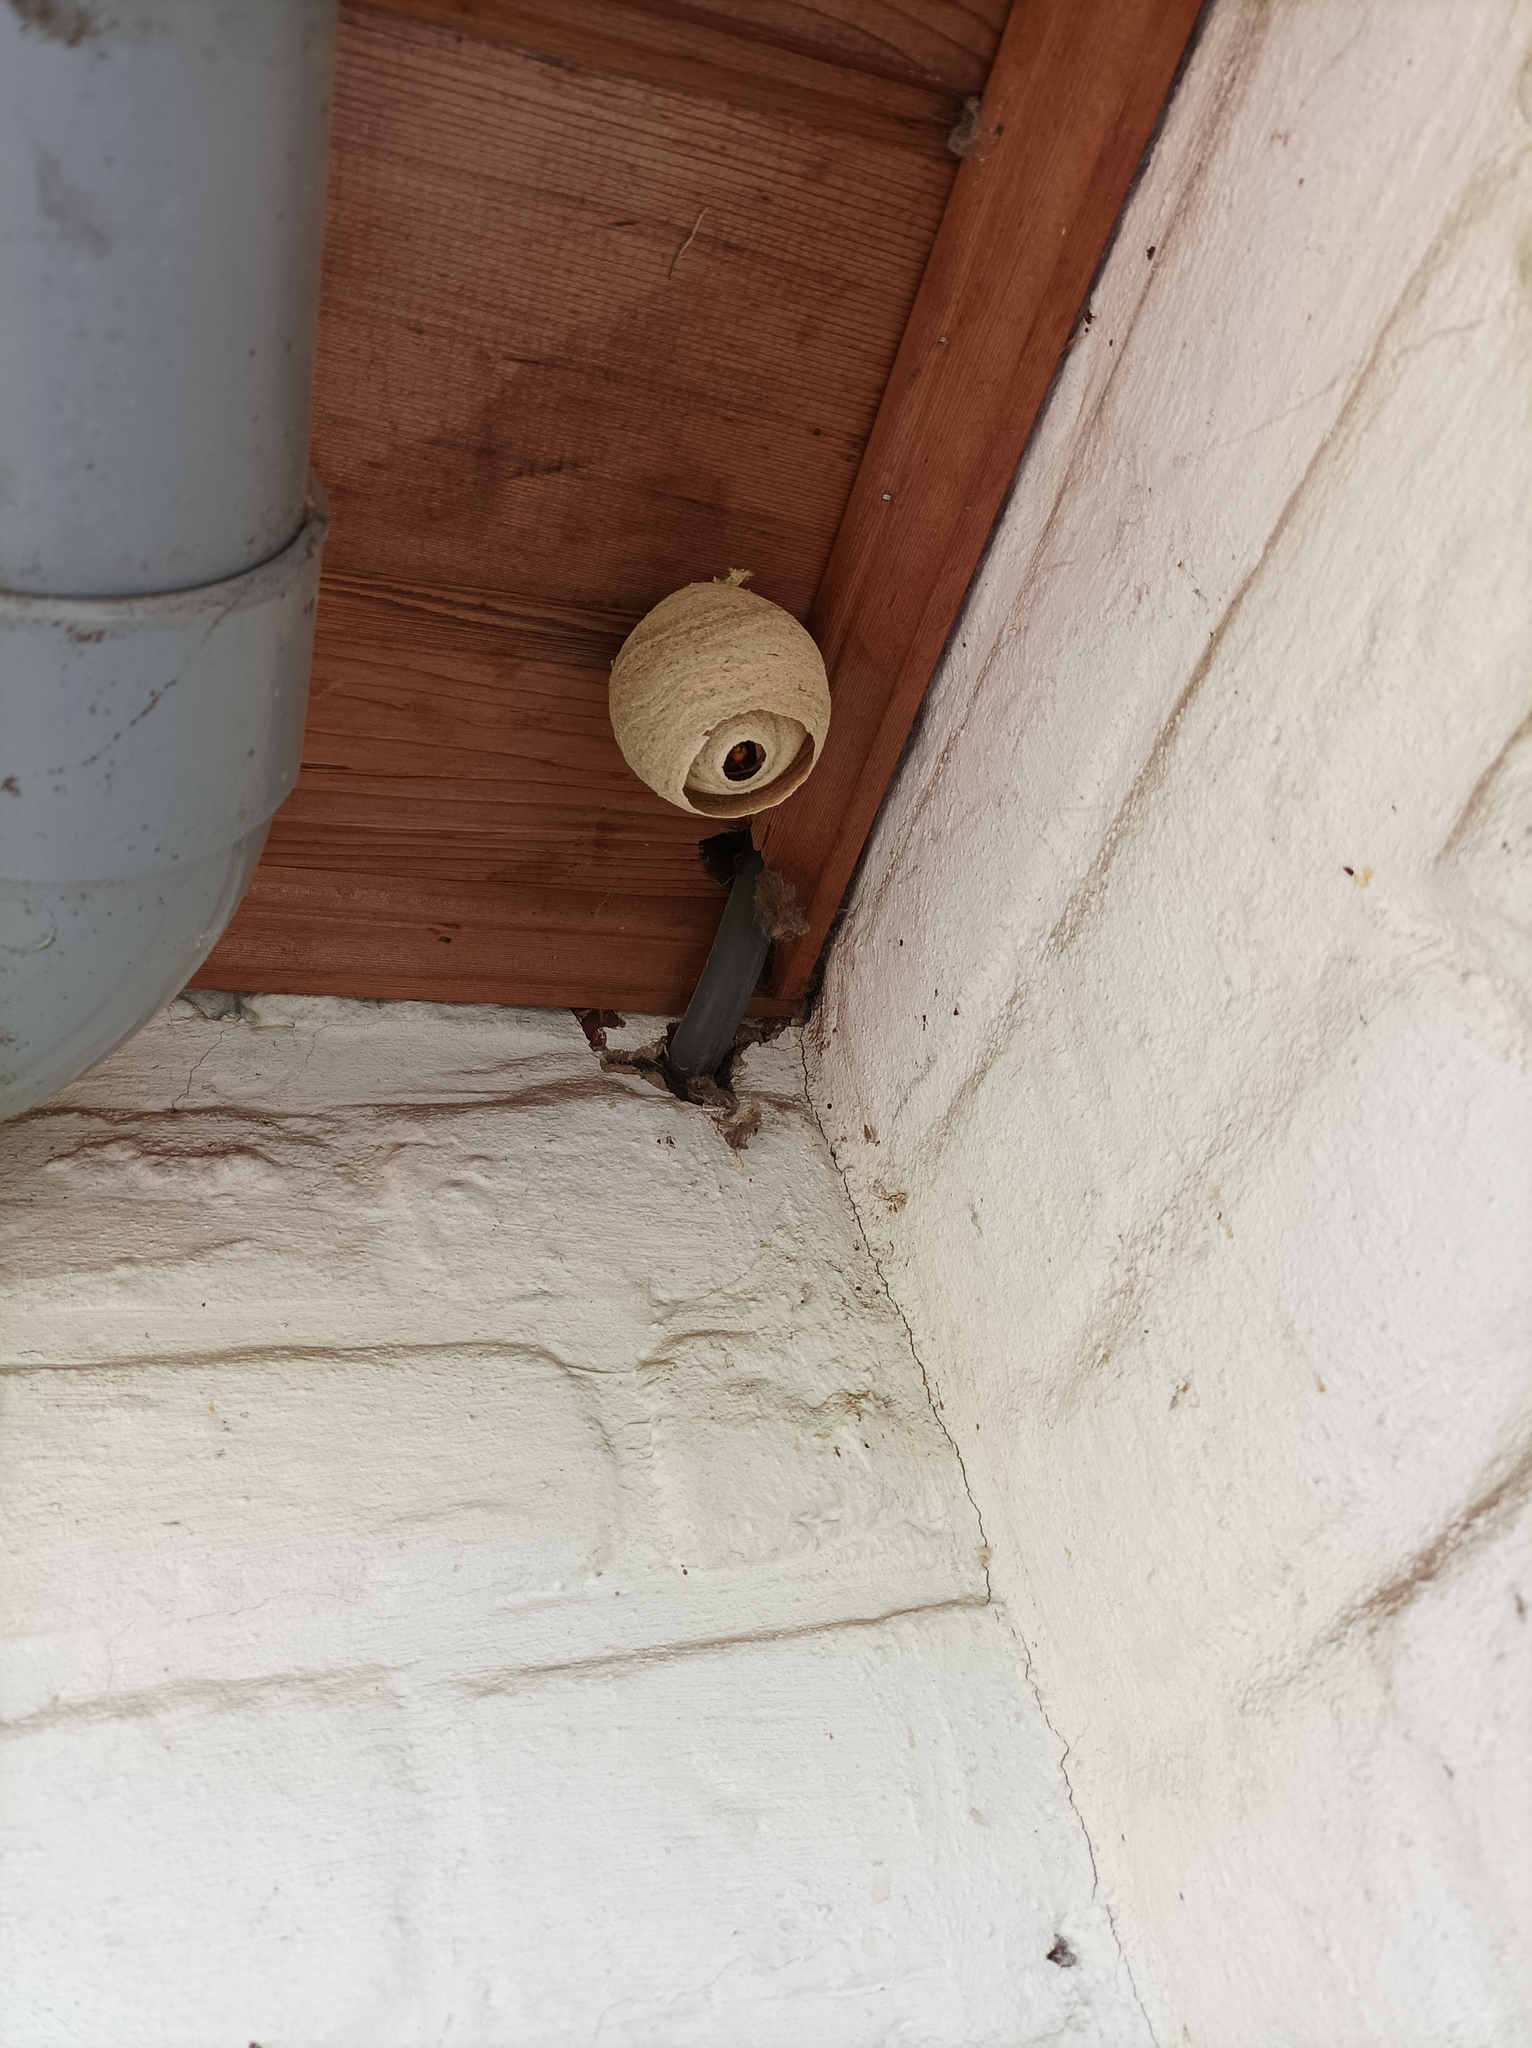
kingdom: Animalia
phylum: Arthropoda
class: Insecta
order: Hymenoptera
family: Vespidae
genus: Vespa
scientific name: Vespa velutina
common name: Asian hornet
